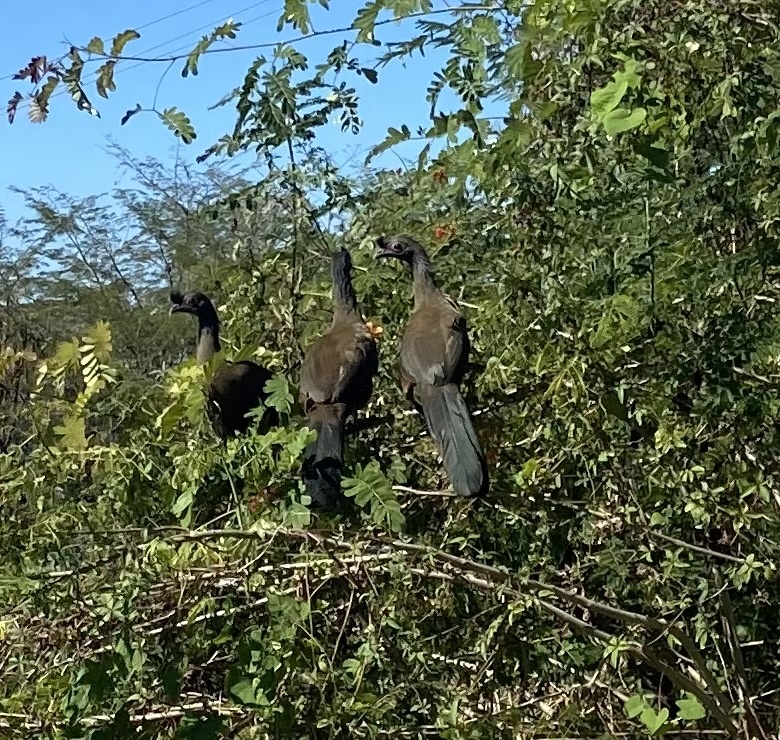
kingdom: Animalia
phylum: Chordata
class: Aves
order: Galliformes
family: Cracidae
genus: Ortalis
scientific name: Ortalis wagleri
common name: Rufous-bellied chachalaca
